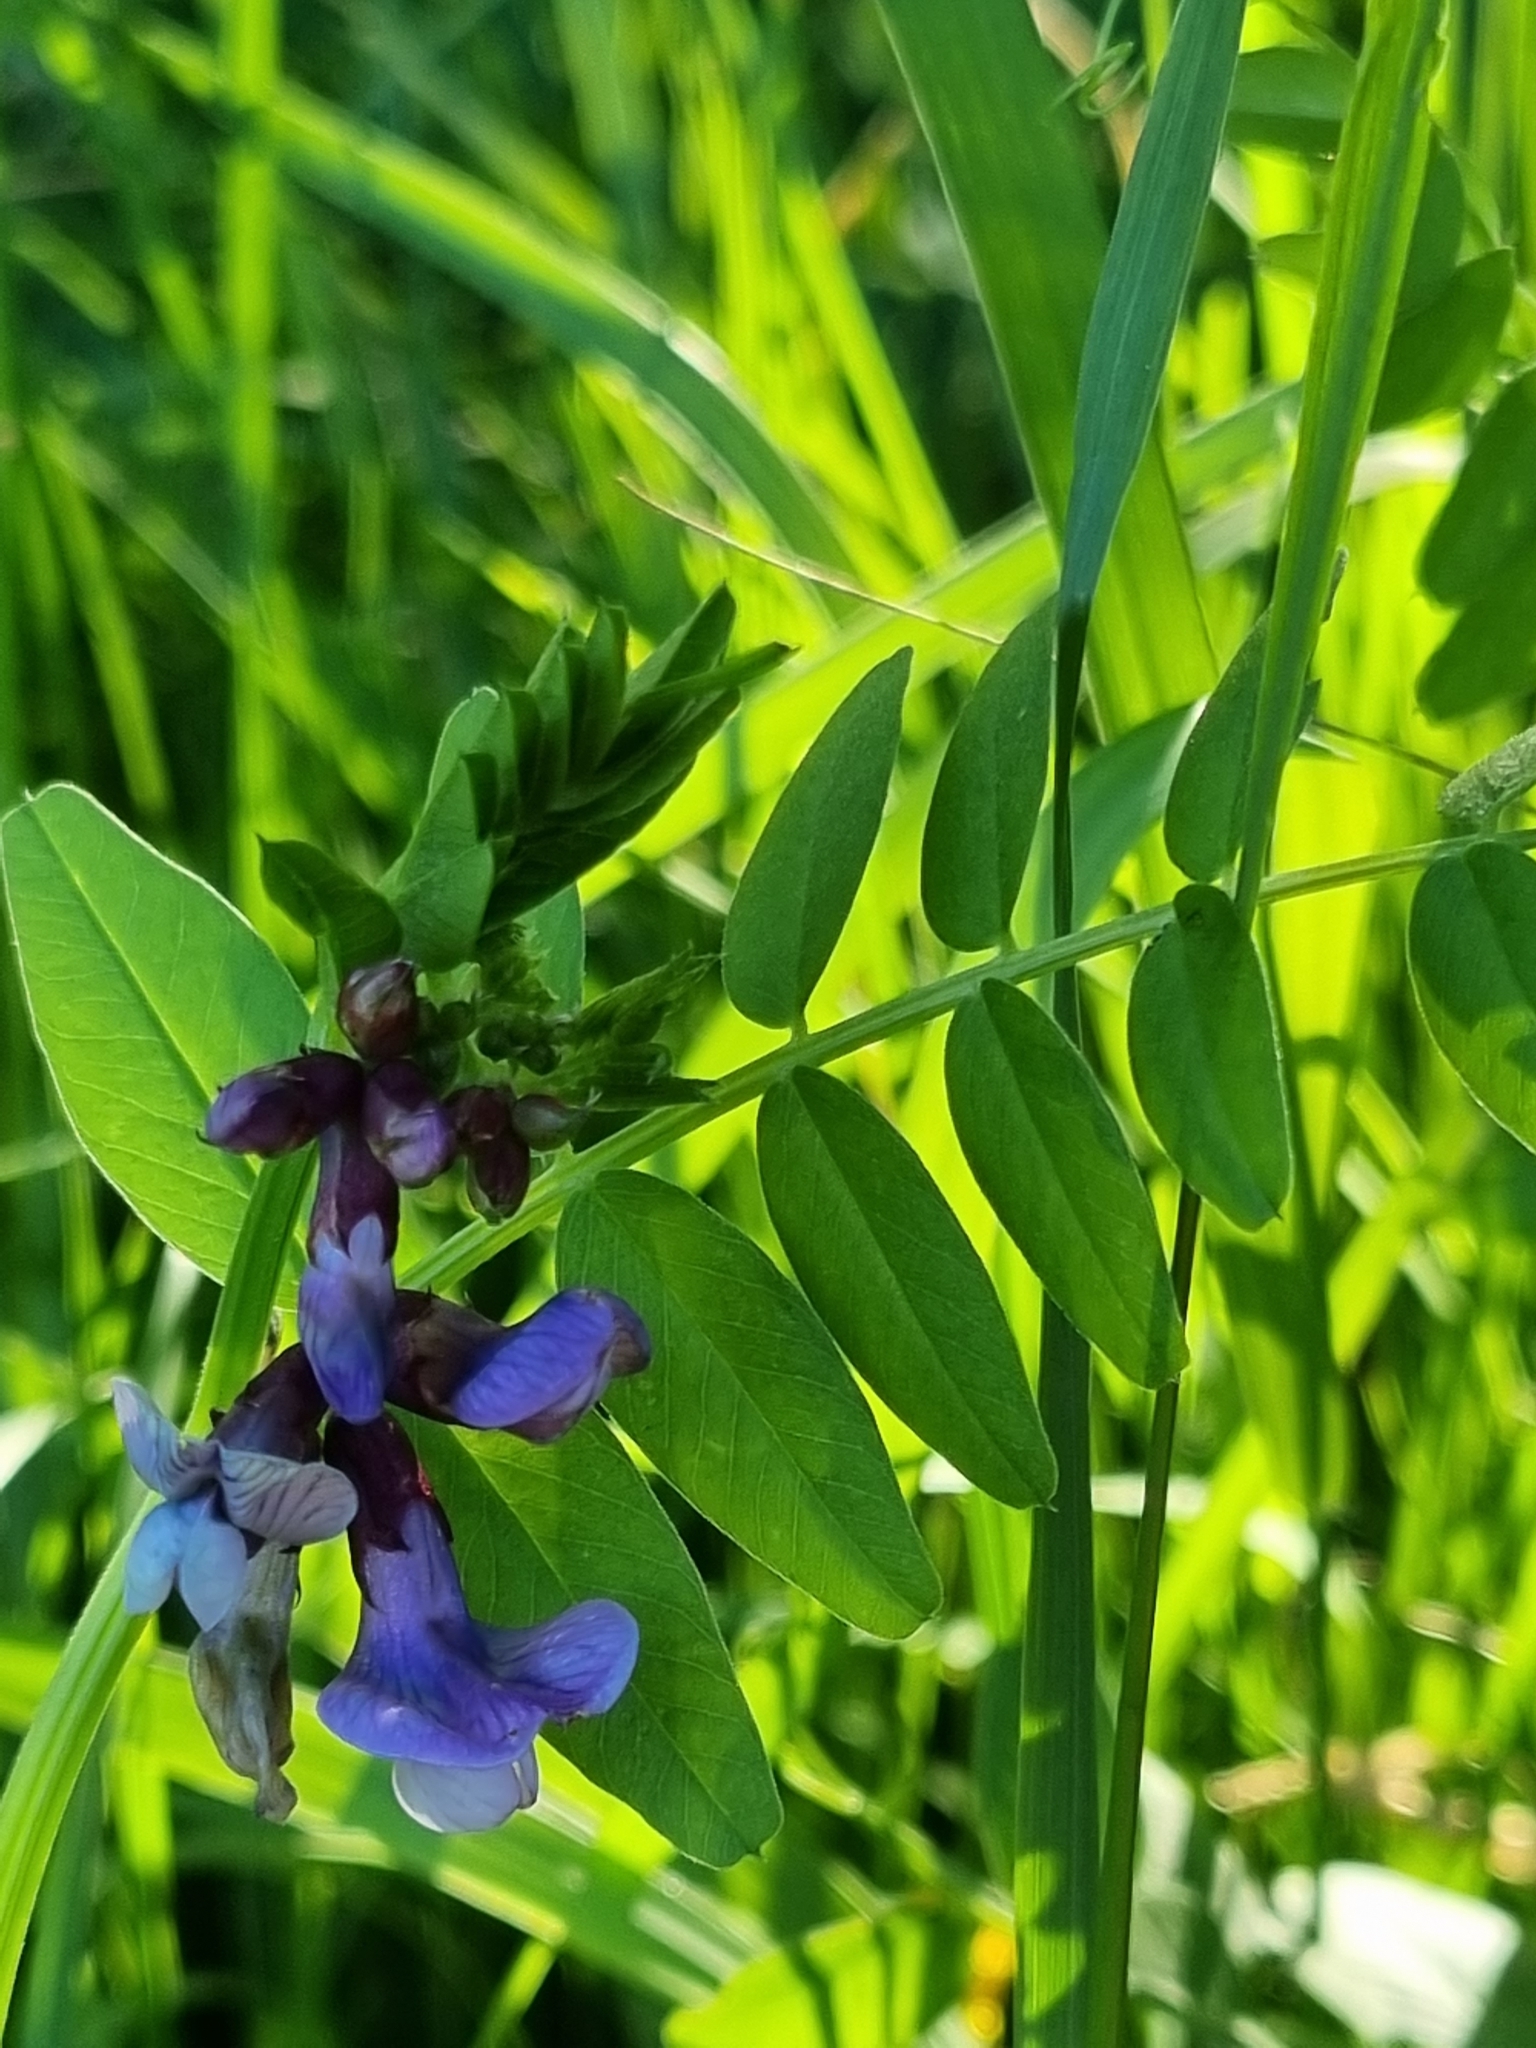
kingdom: Plantae
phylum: Tracheophyta
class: Magnoliopsida
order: Fabales
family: Fabaceae
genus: Vicia
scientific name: Vicia sepium
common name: Bush vetch
